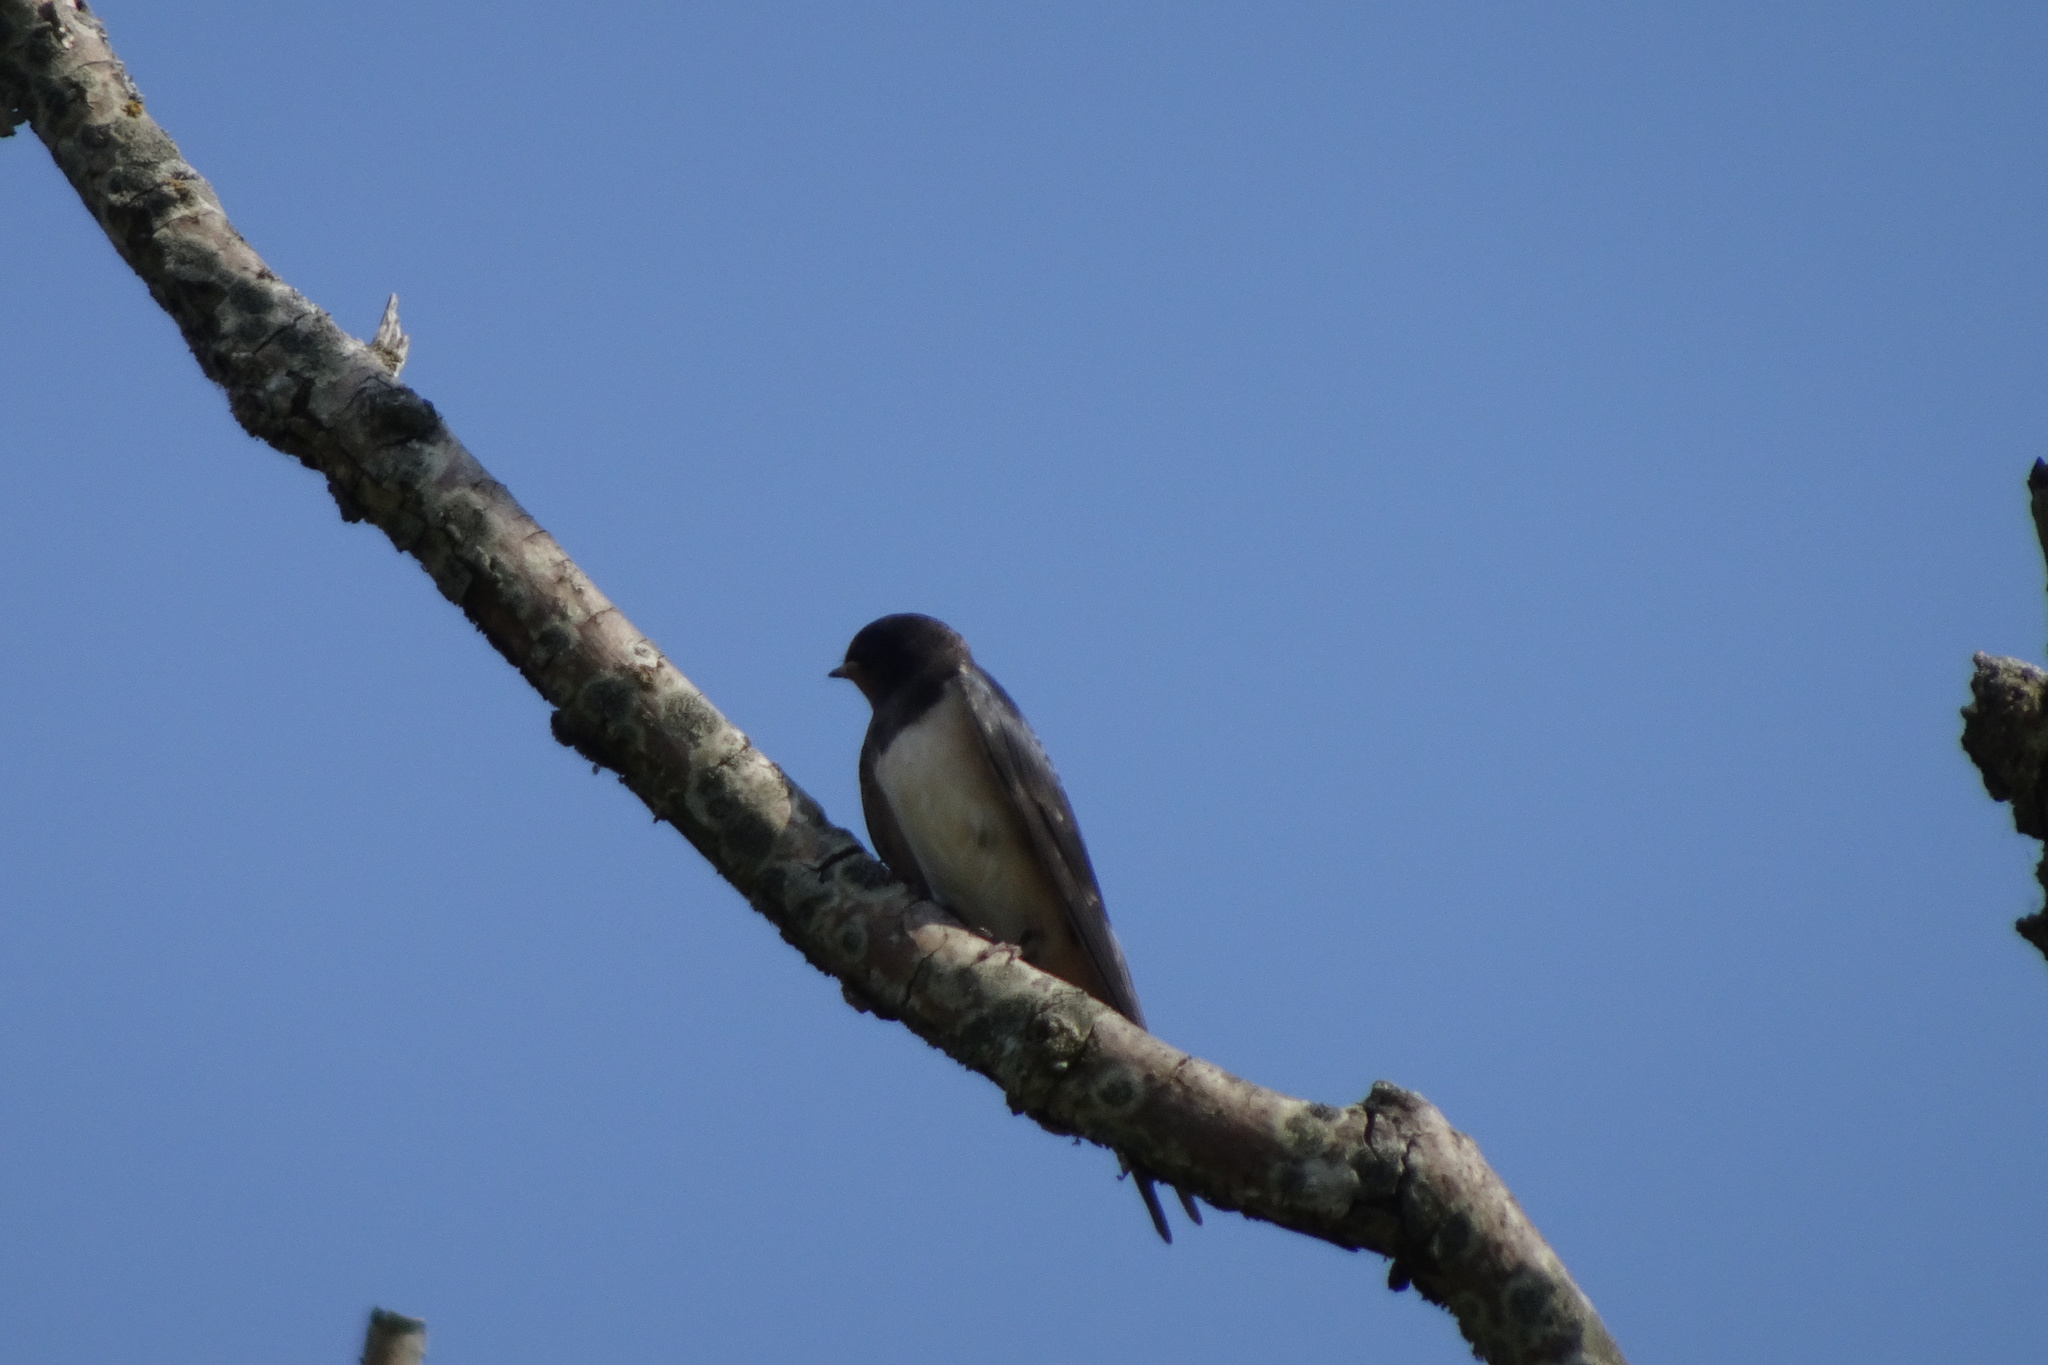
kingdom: Animalia
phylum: Chordata
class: Aves
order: Passeriformes
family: Hirundinidae
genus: Hirundo
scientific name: Hirundo rustica
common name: Barn swallow
